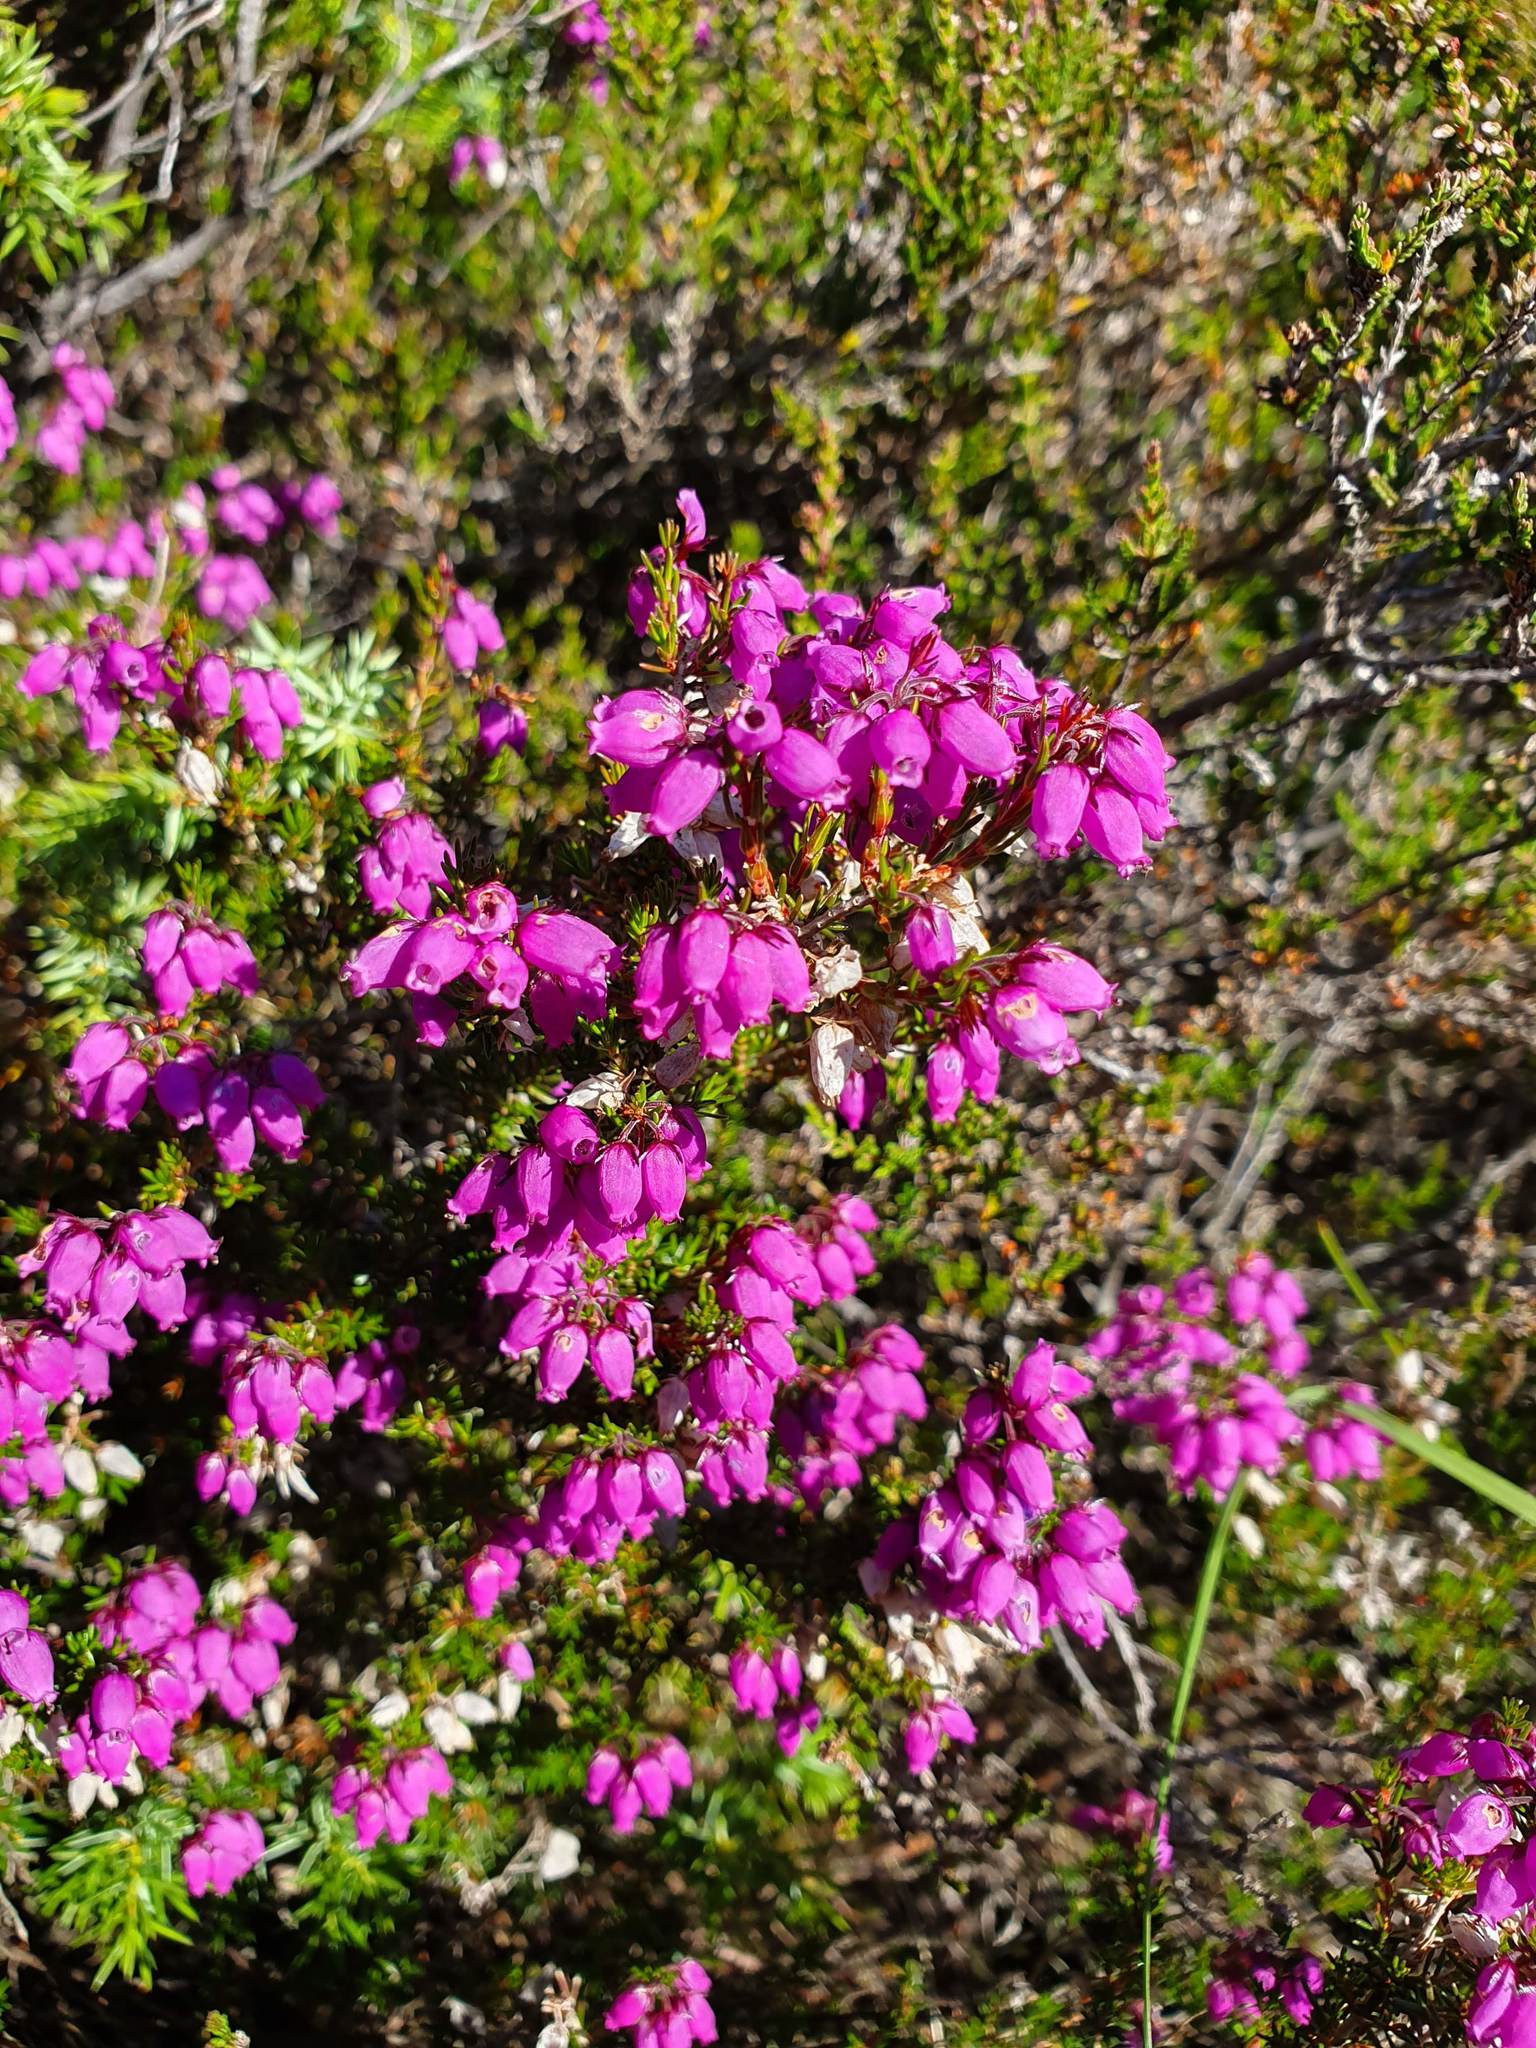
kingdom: Plantae
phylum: Tracheophyta
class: Magnoliopsida
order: Ericales
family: Ericaceae
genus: Erica
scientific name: Erica cinerea
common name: Bell heather
